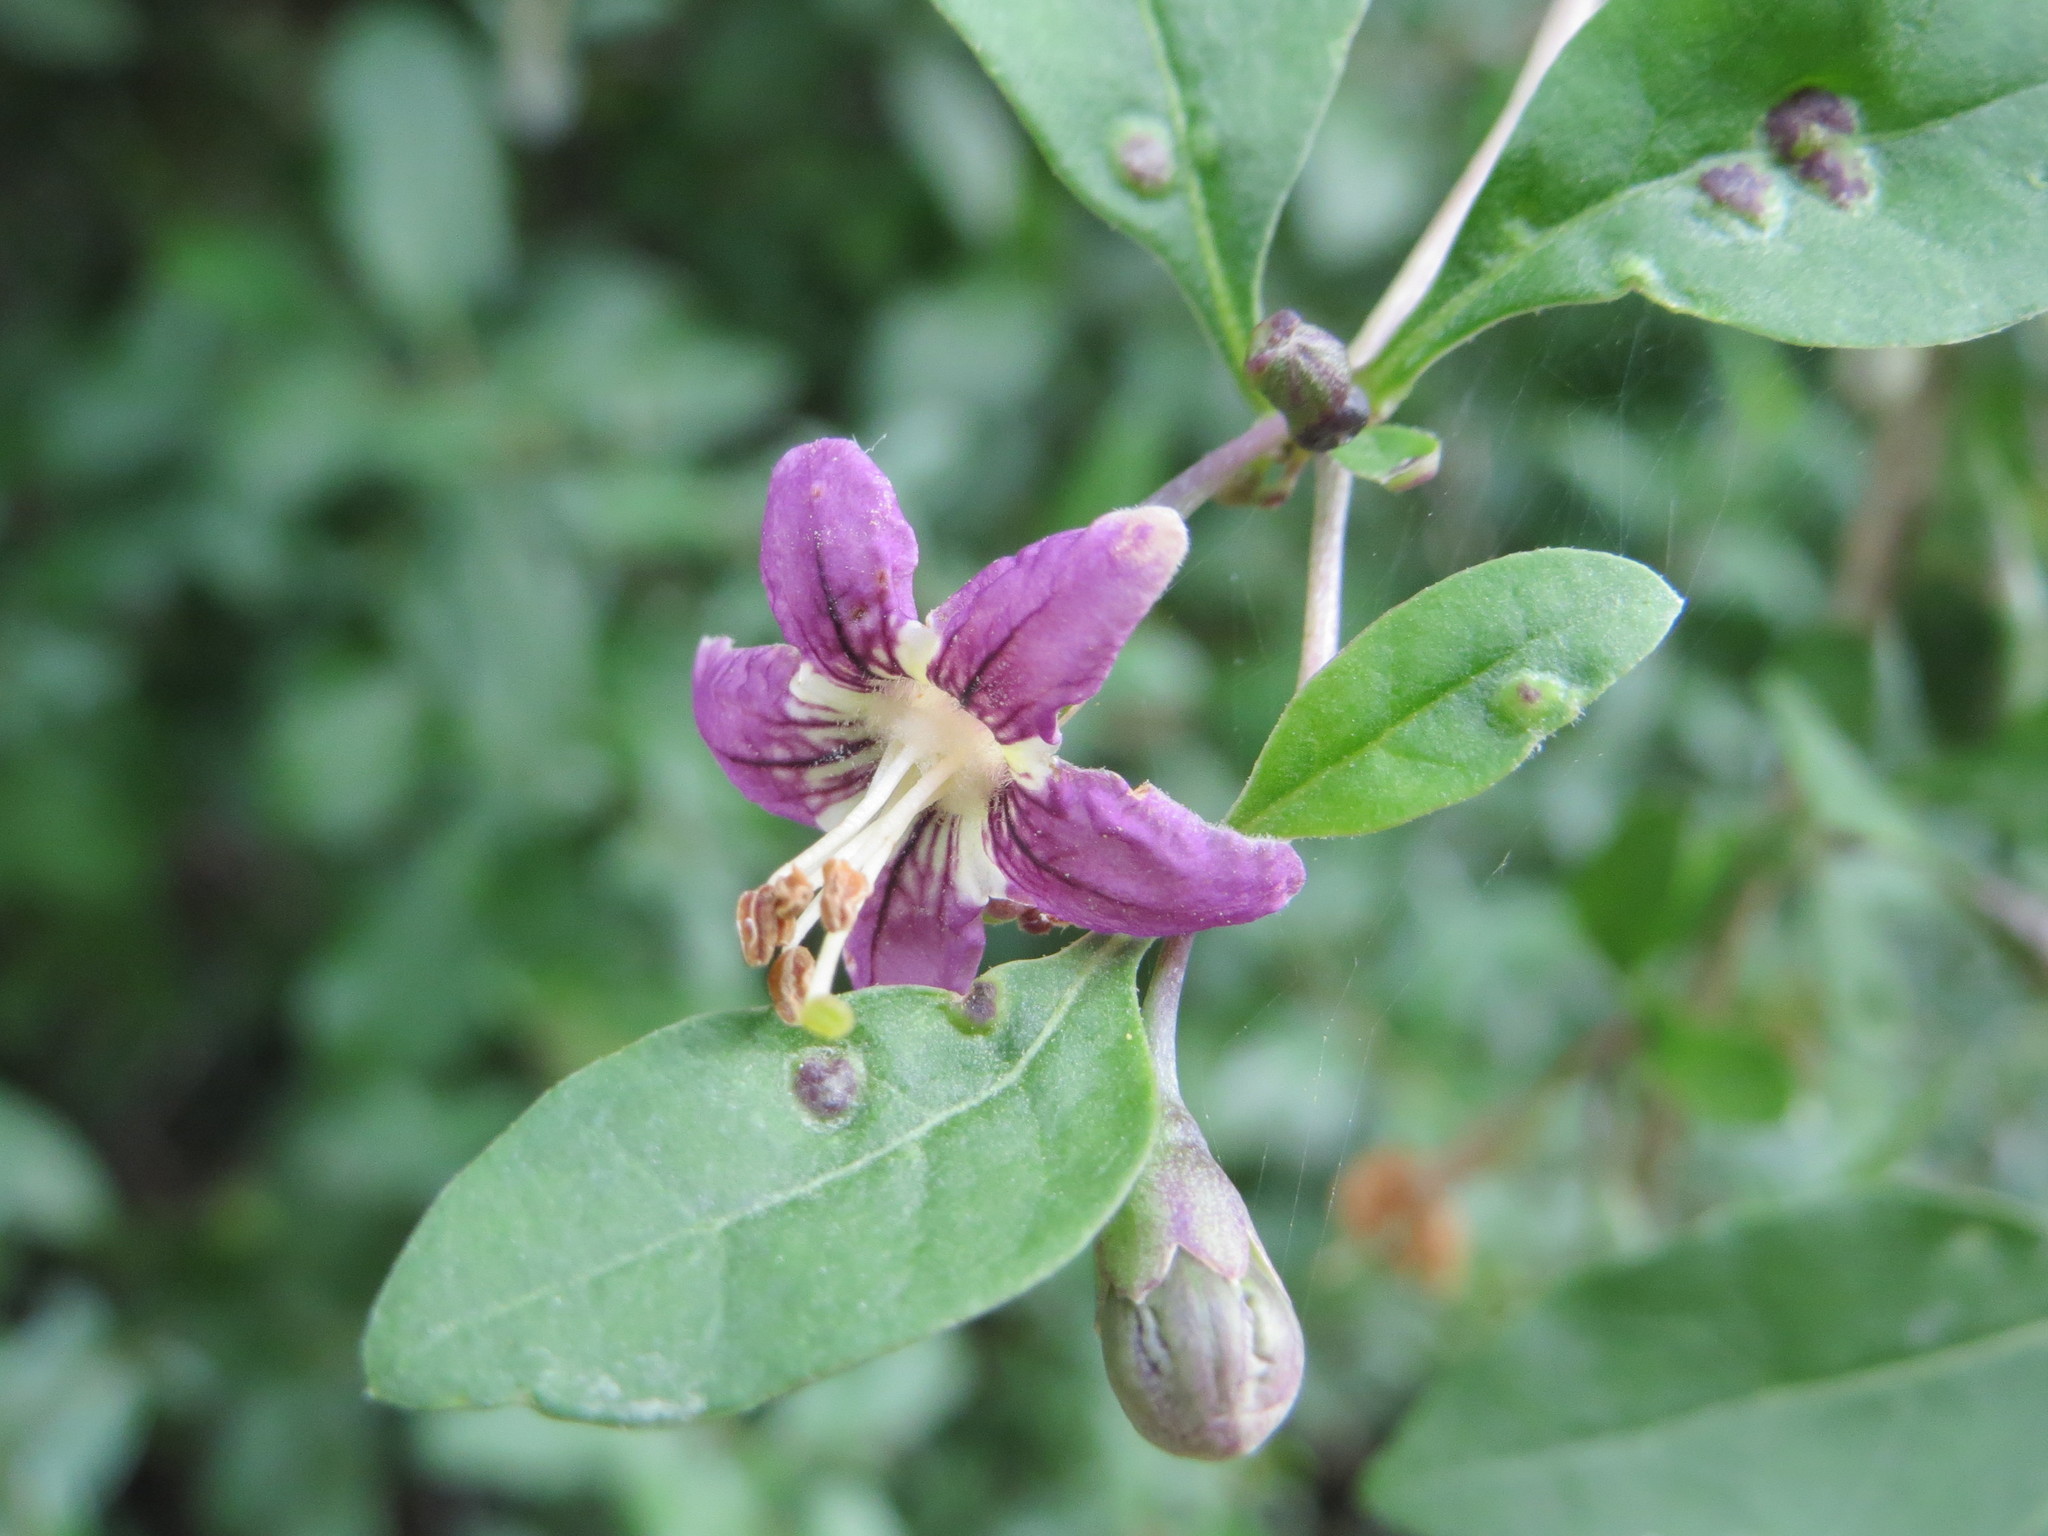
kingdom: Plantae
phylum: Tracheophyta
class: Magnoliopsida
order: Solanales
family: Solanaceae
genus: Lycium
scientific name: Lycium barbarum
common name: Duke of argyll's teaplant
